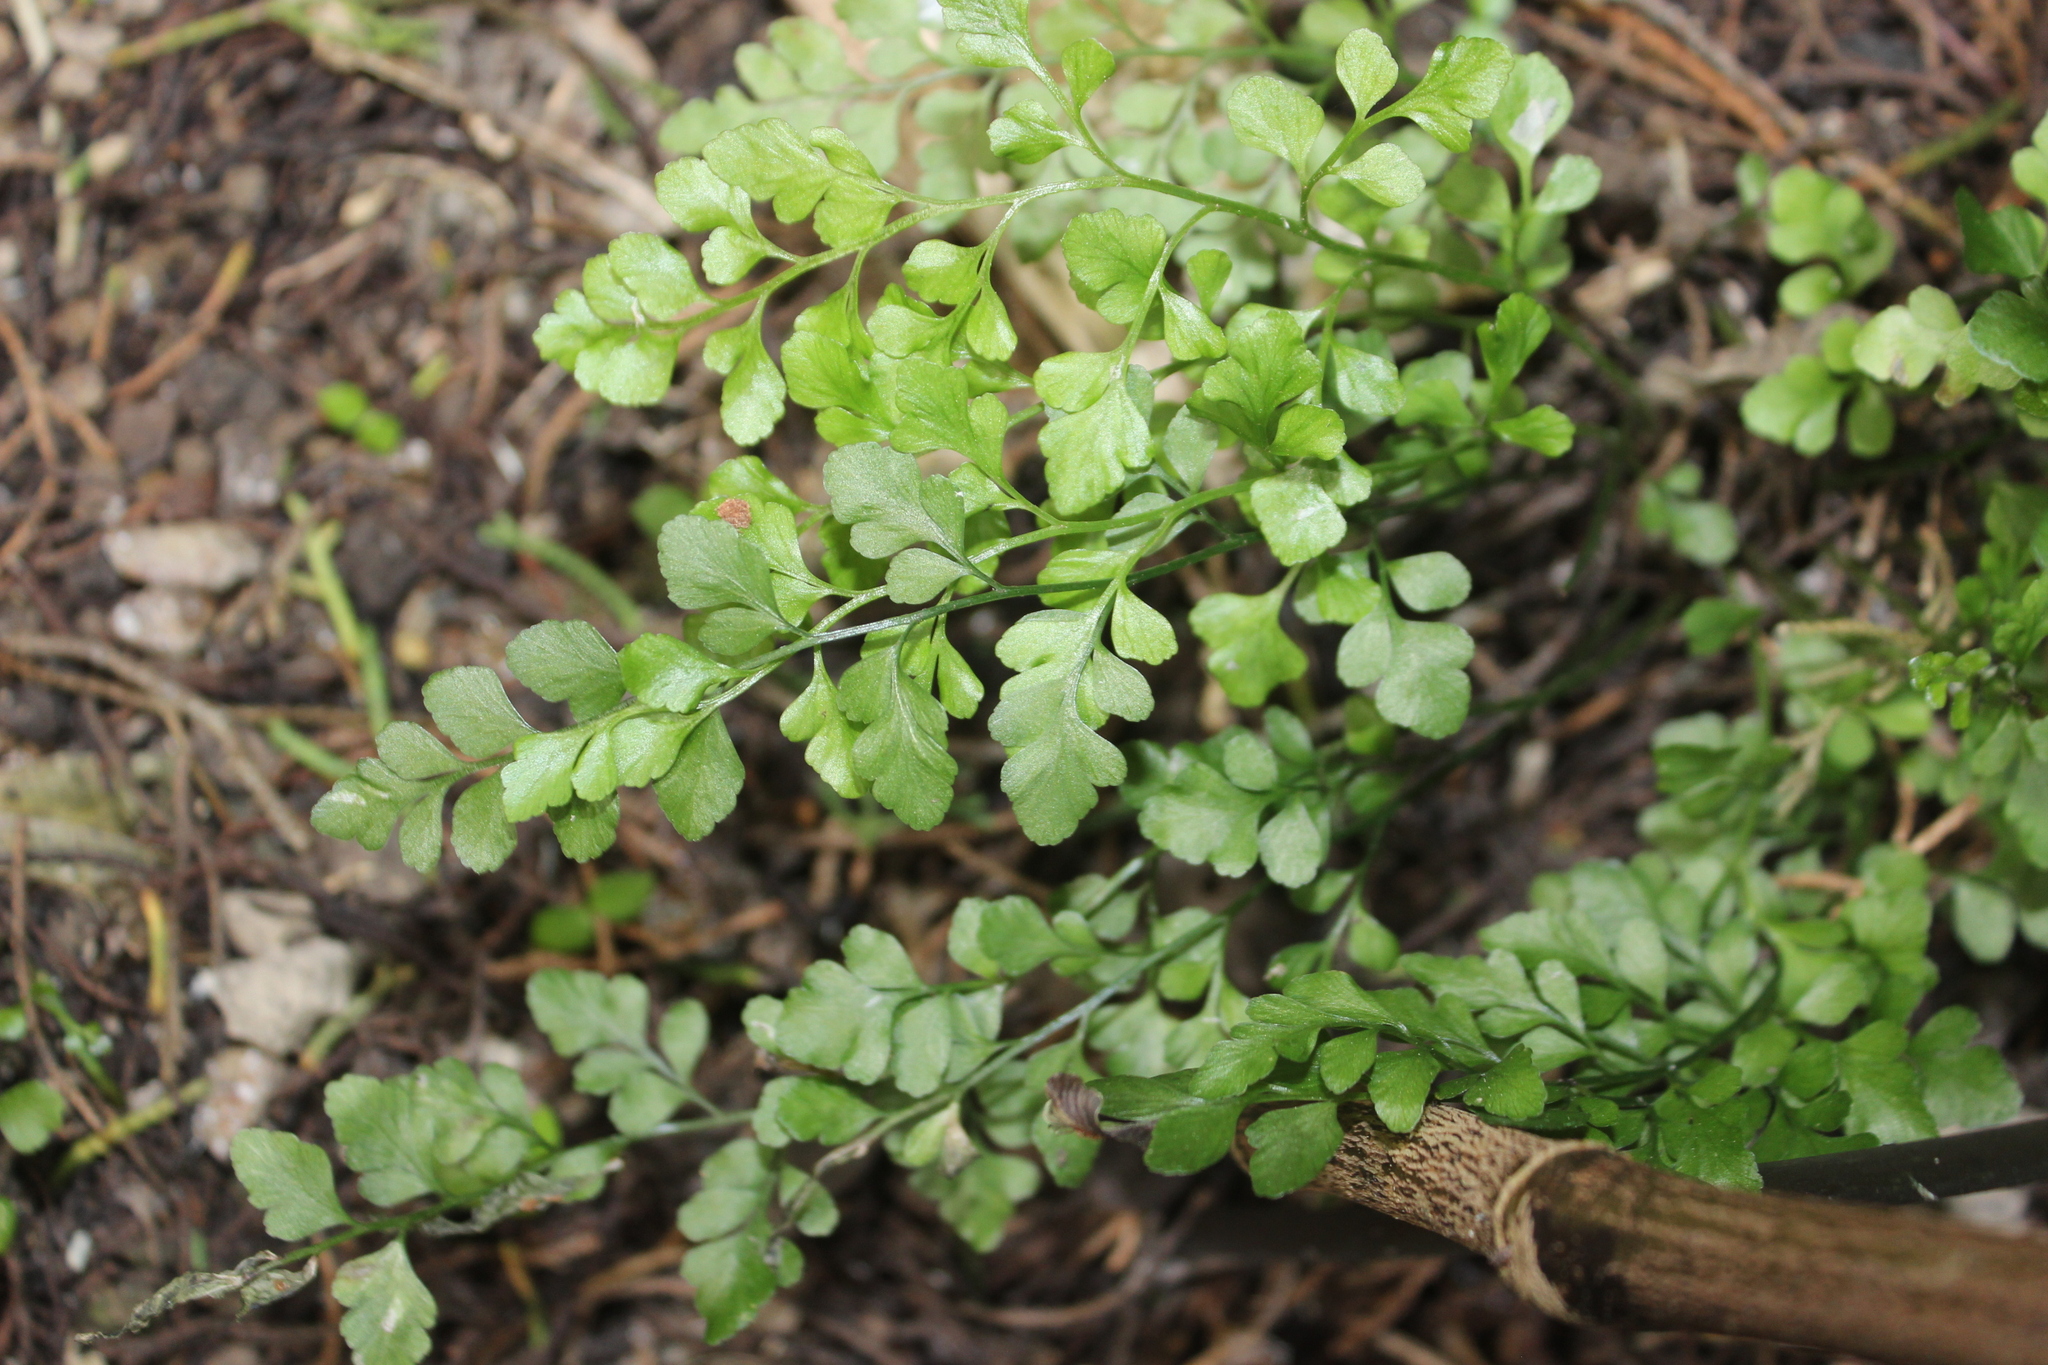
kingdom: Plantae
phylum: Tracheophyta
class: Polypodiopsida
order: Polypodiales
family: Aspleniaceae
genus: Asplenium
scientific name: Asplenium hookerianum
